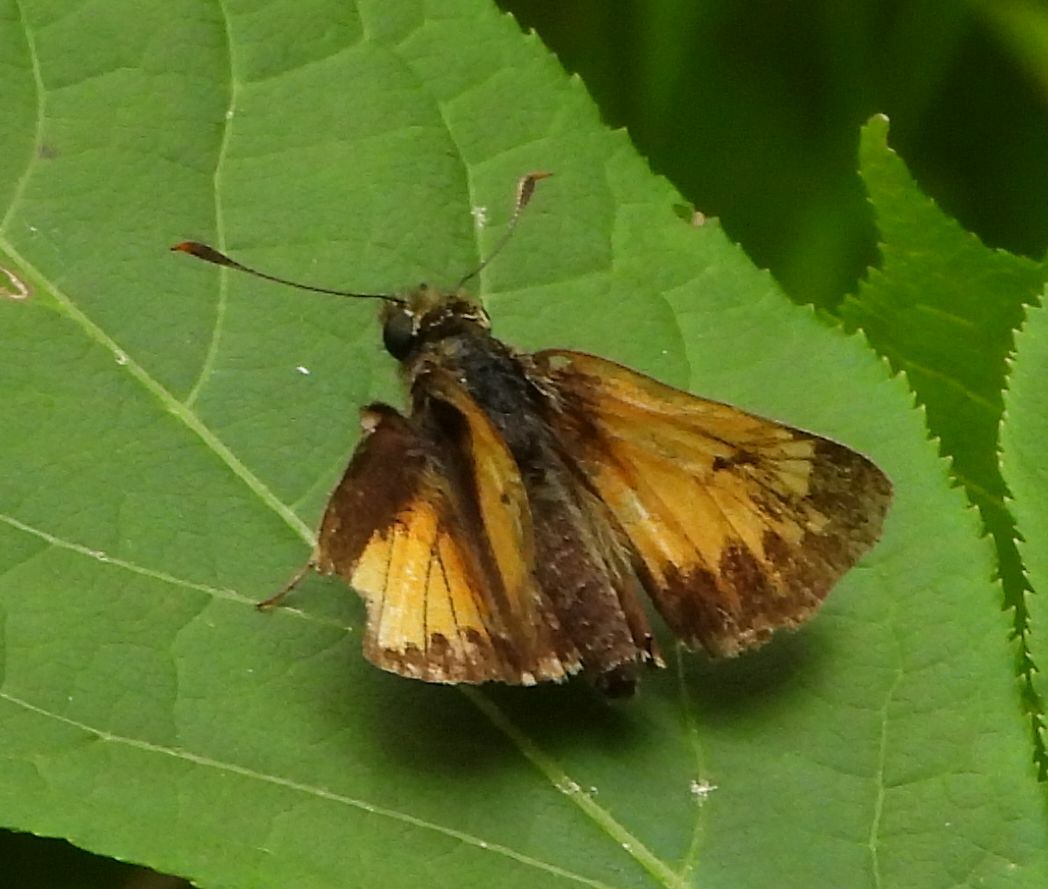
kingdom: Animalia
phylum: Arthropoda
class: Insecta
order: Lepidoptera
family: Hesperiidae
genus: Lon
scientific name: Lon hobomok
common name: Hobomok skipper
